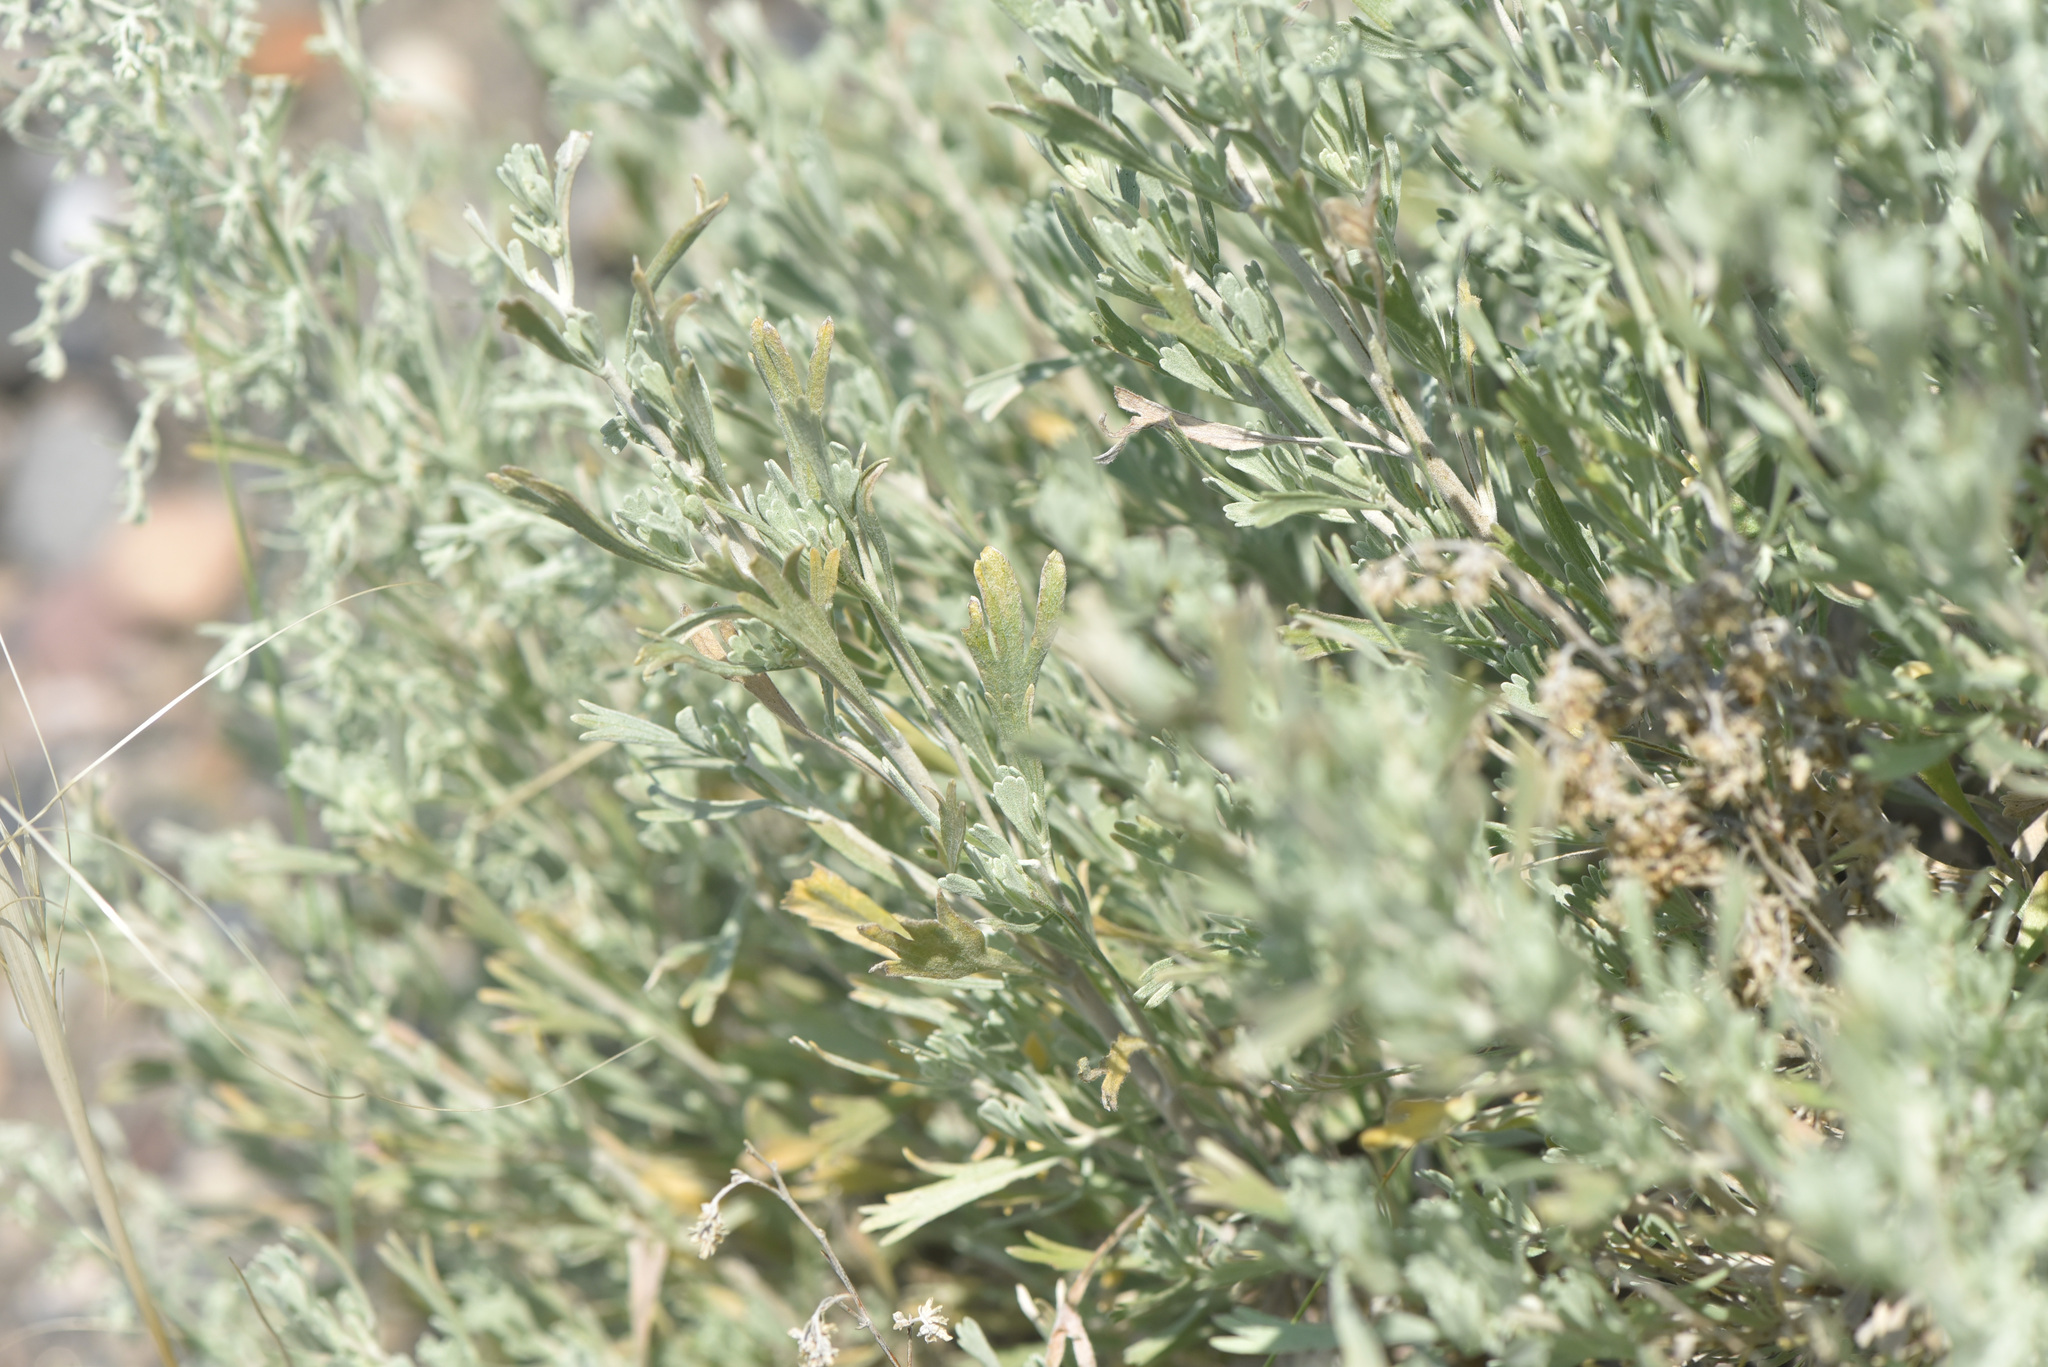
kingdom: Plantae
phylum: Tracheophyta
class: Magnoliopsida
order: Asterales
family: Asteraceae
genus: Artemisia
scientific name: Artemisia tridentata
